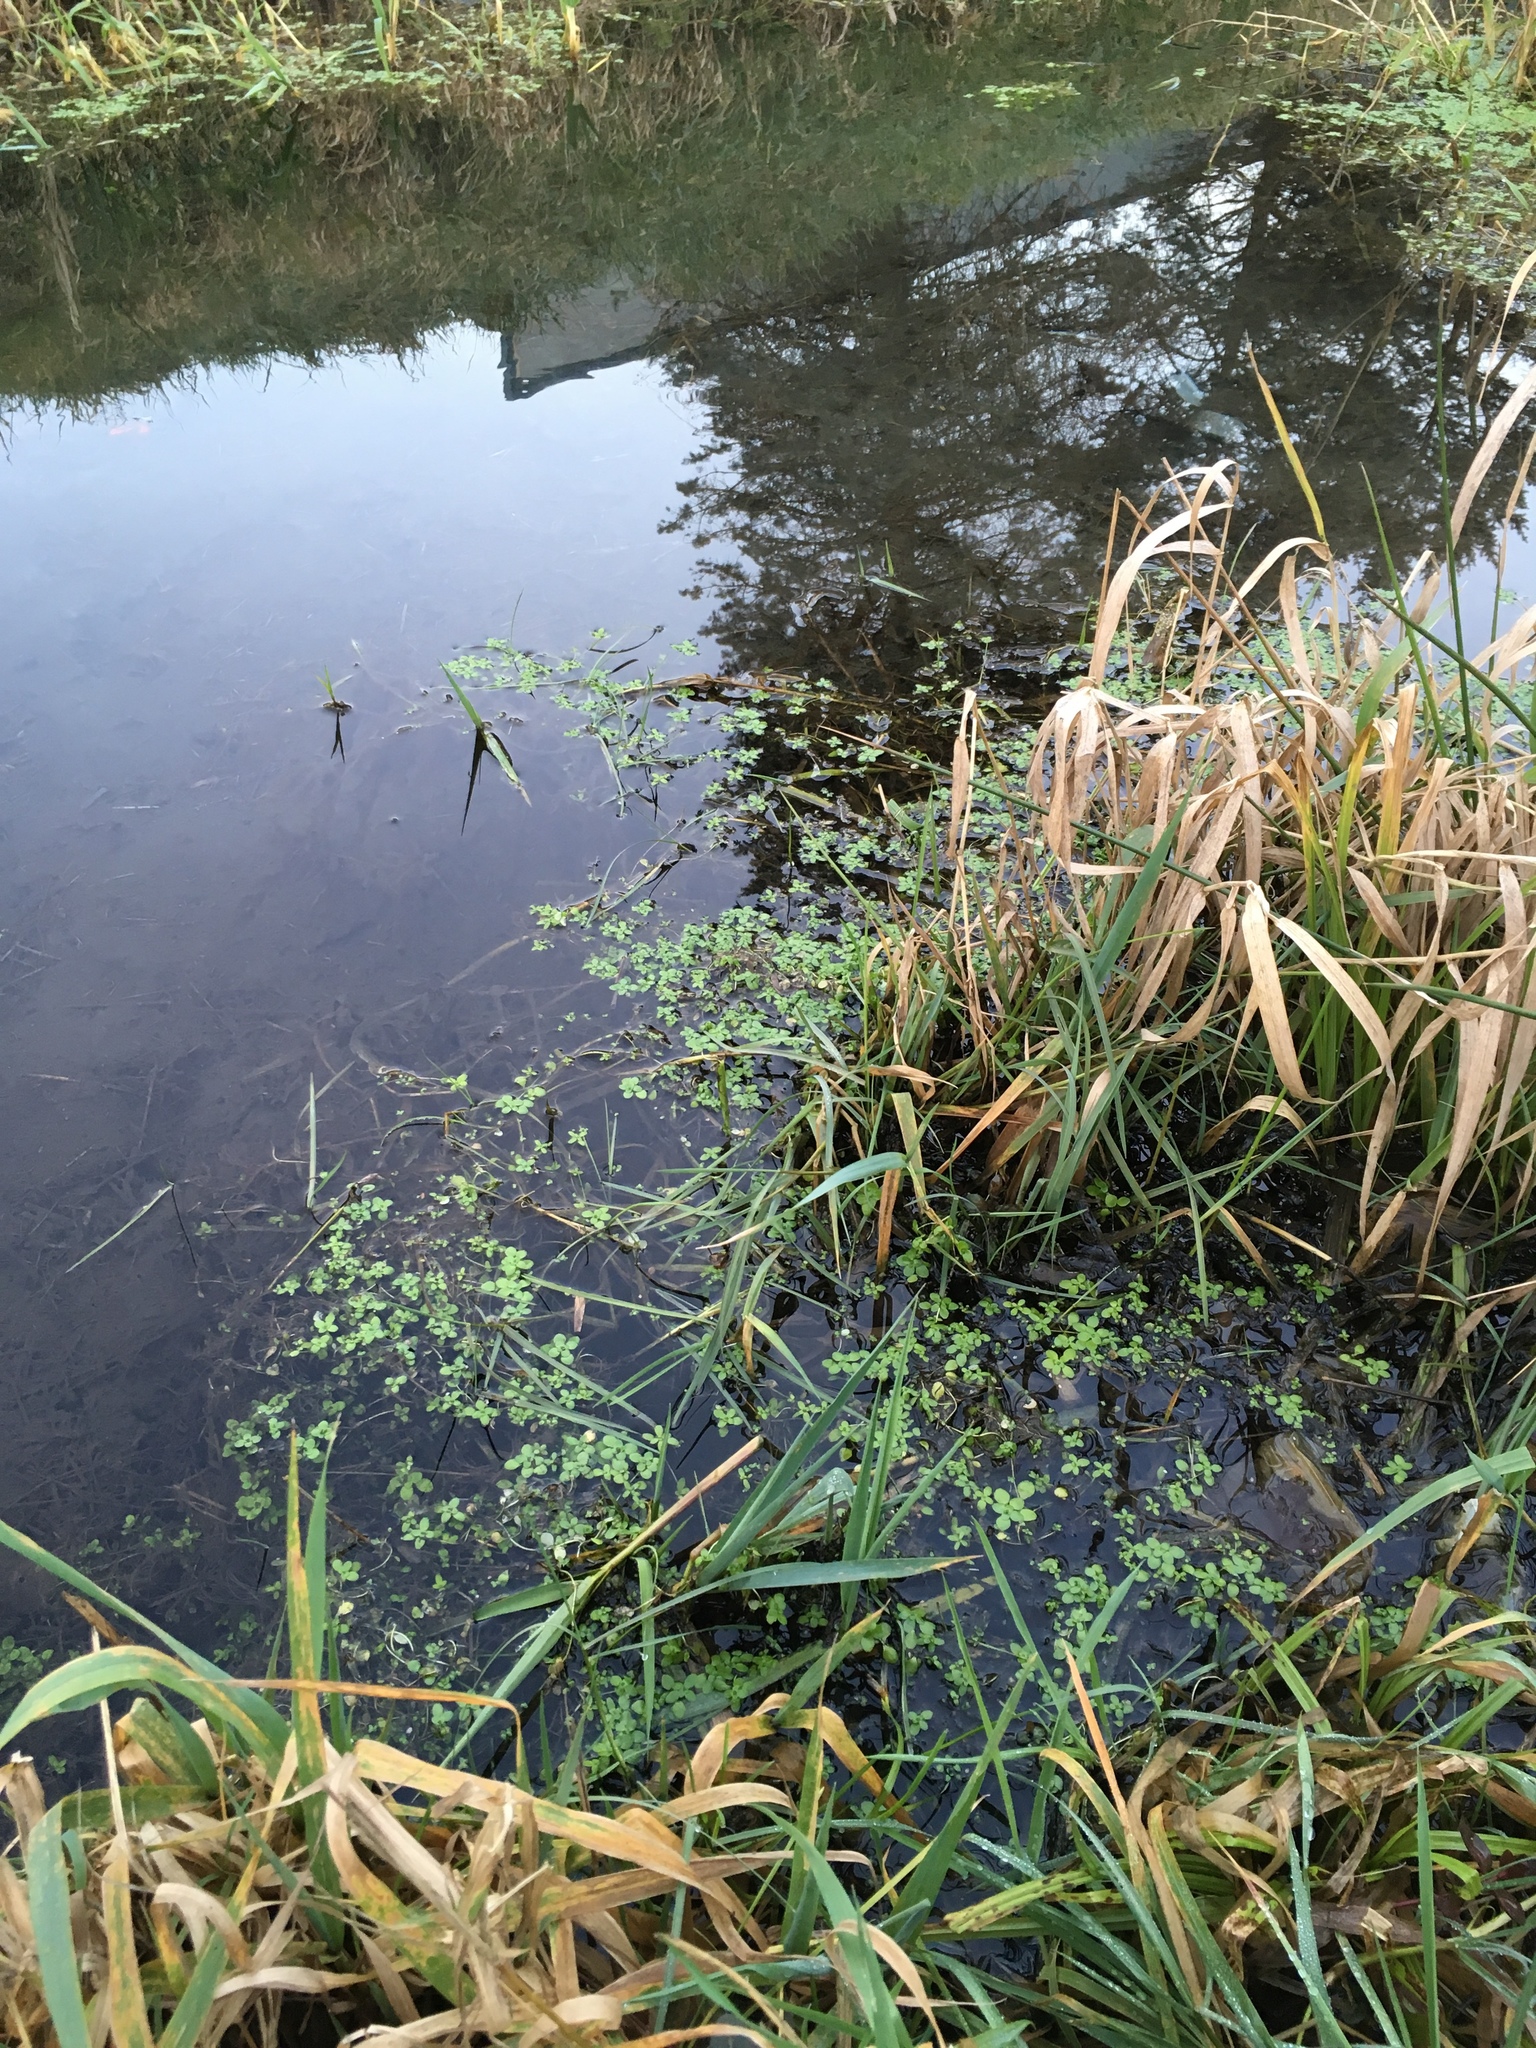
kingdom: Plantae
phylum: Tracheophyta
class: Magnoliopsida
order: Lamiales
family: Plantaginaceae
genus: Callitriche
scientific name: Callitriche stagnalis
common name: Common water-starwort
